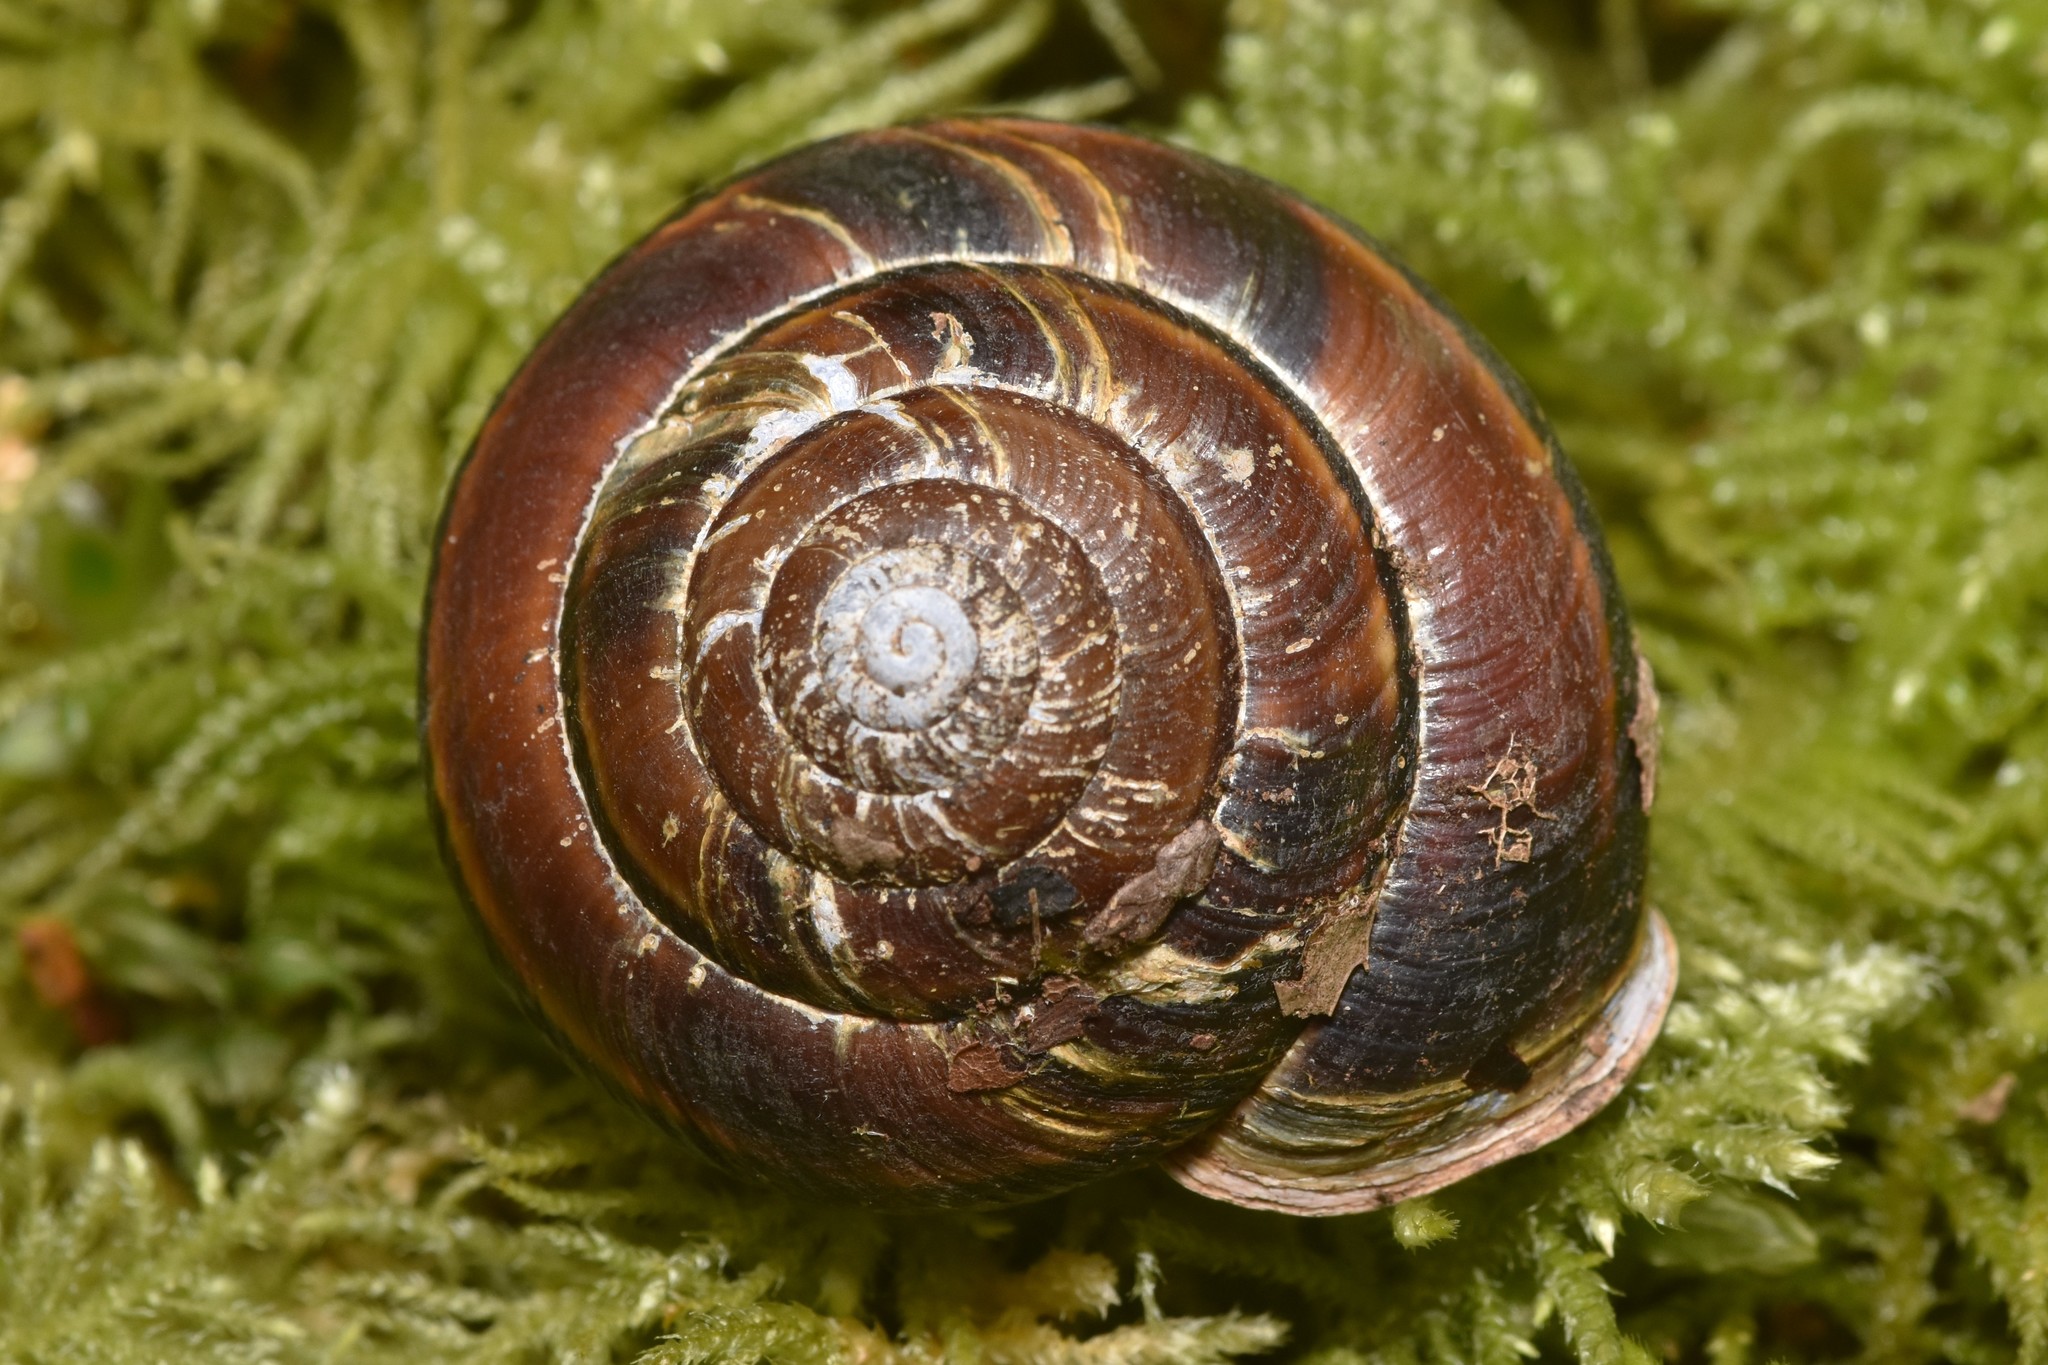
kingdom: Animalia
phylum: Mollusca
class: Gastropoda
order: Stylommatophora
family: Xanthonychidae
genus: Monadenia
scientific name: Monadenia fidelis
